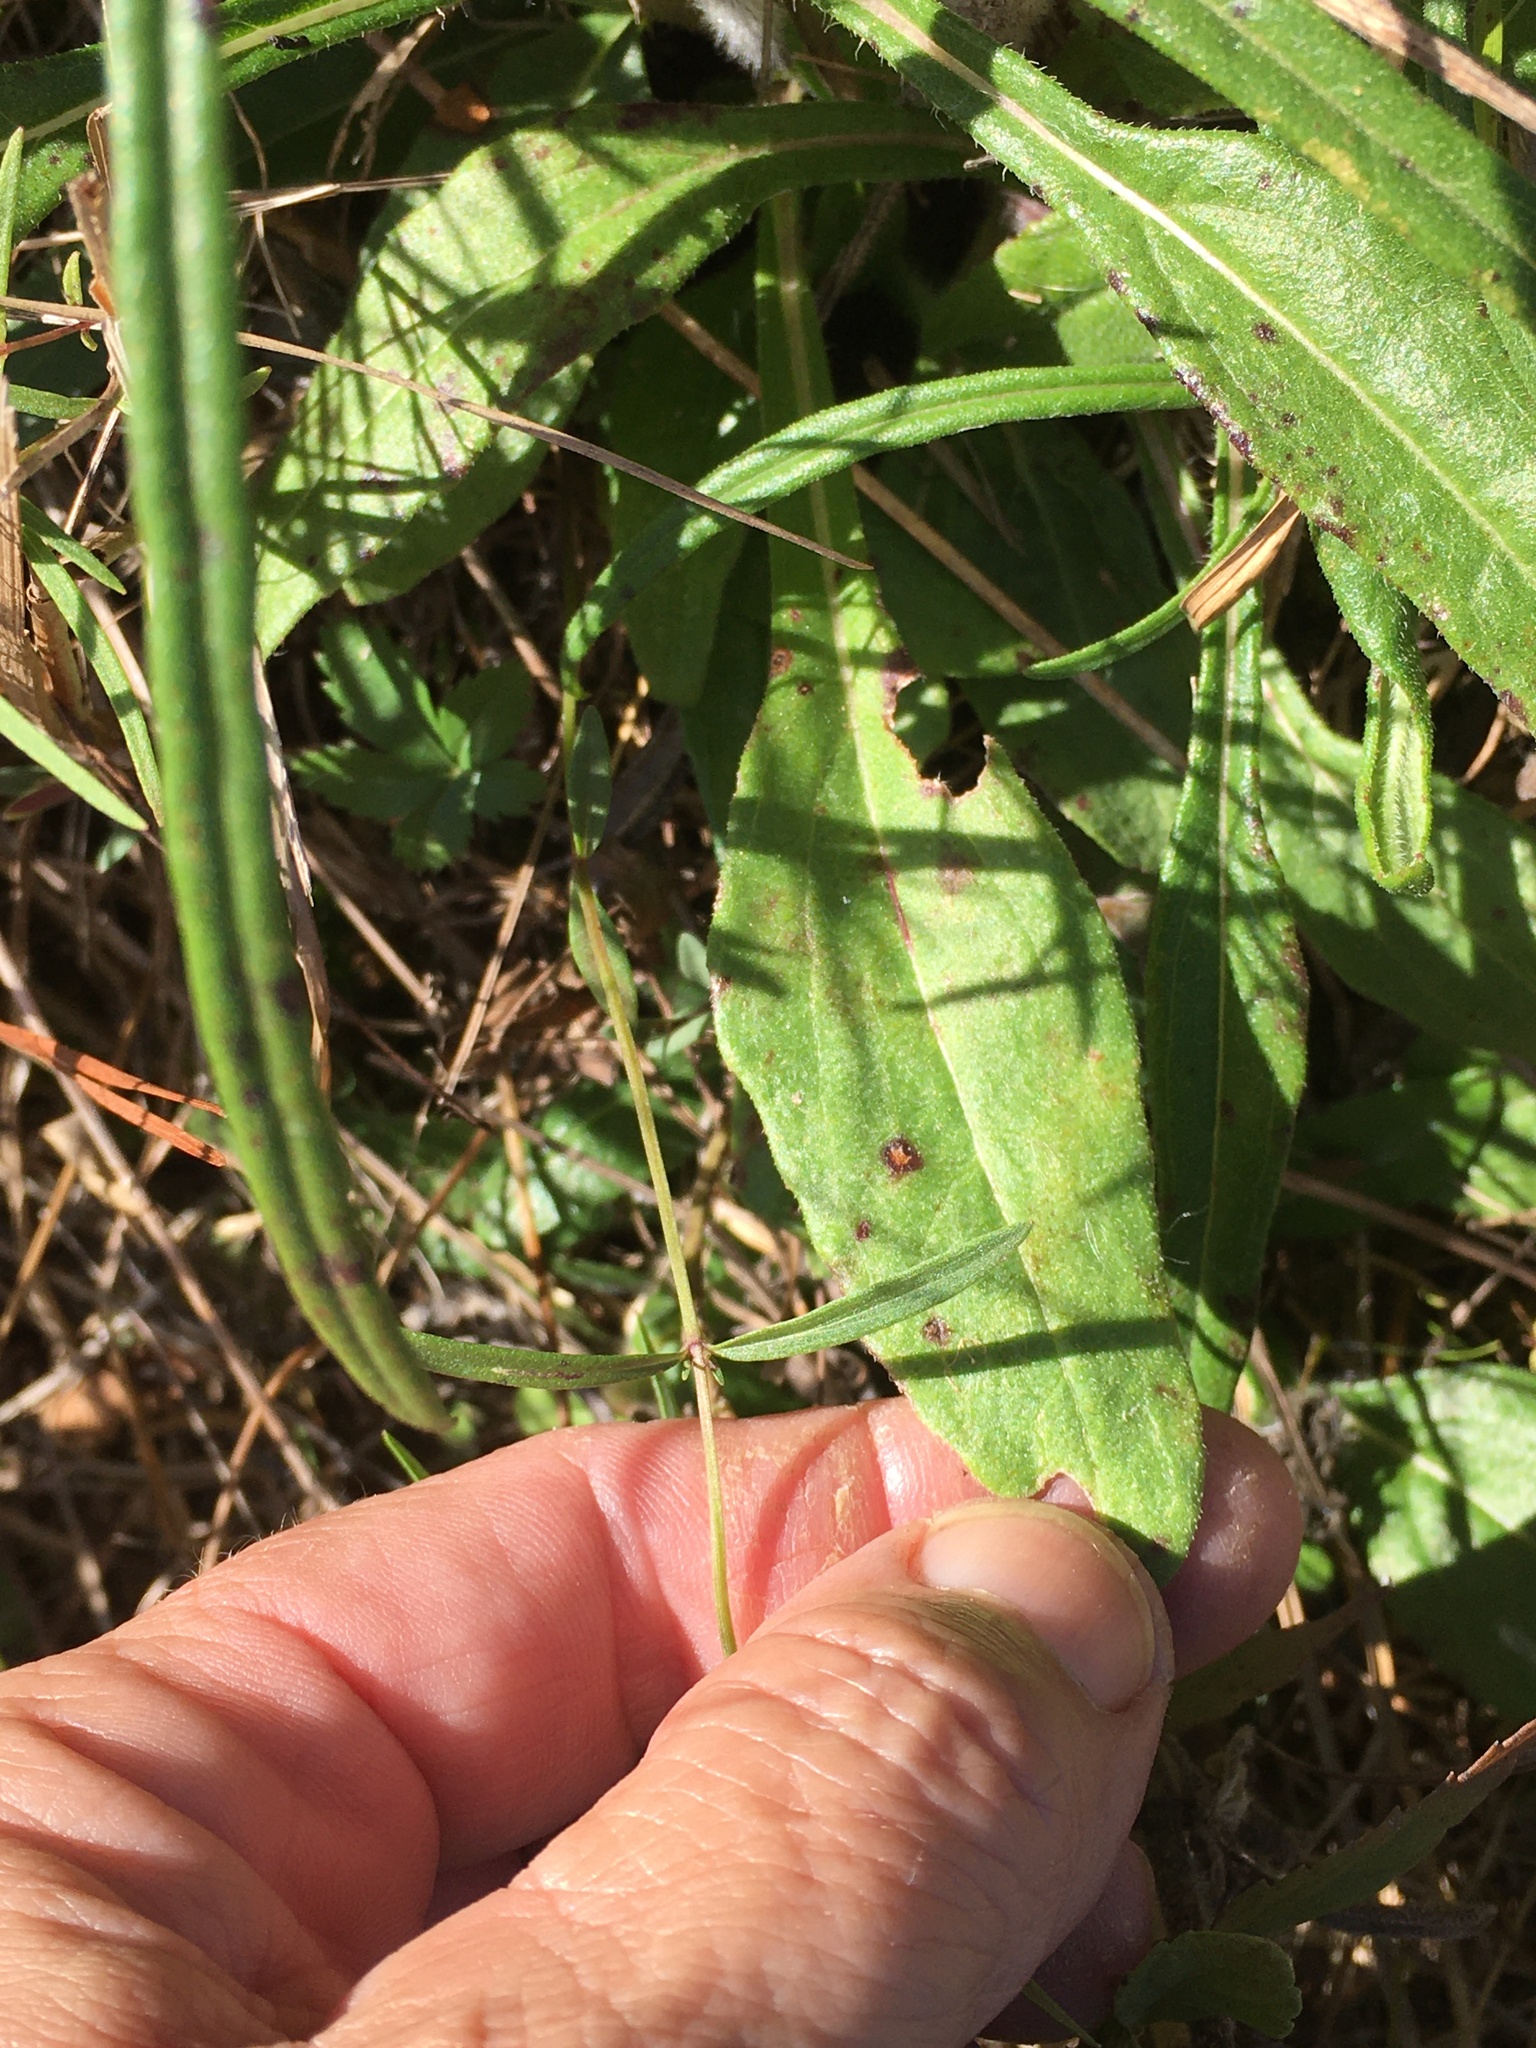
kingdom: Plantae
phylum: Tracheophyta
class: Magnoliopsida
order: Asterales
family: Asteraceae
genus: Helianthus
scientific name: Helianthus angustifolius
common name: Swamp sunflower
